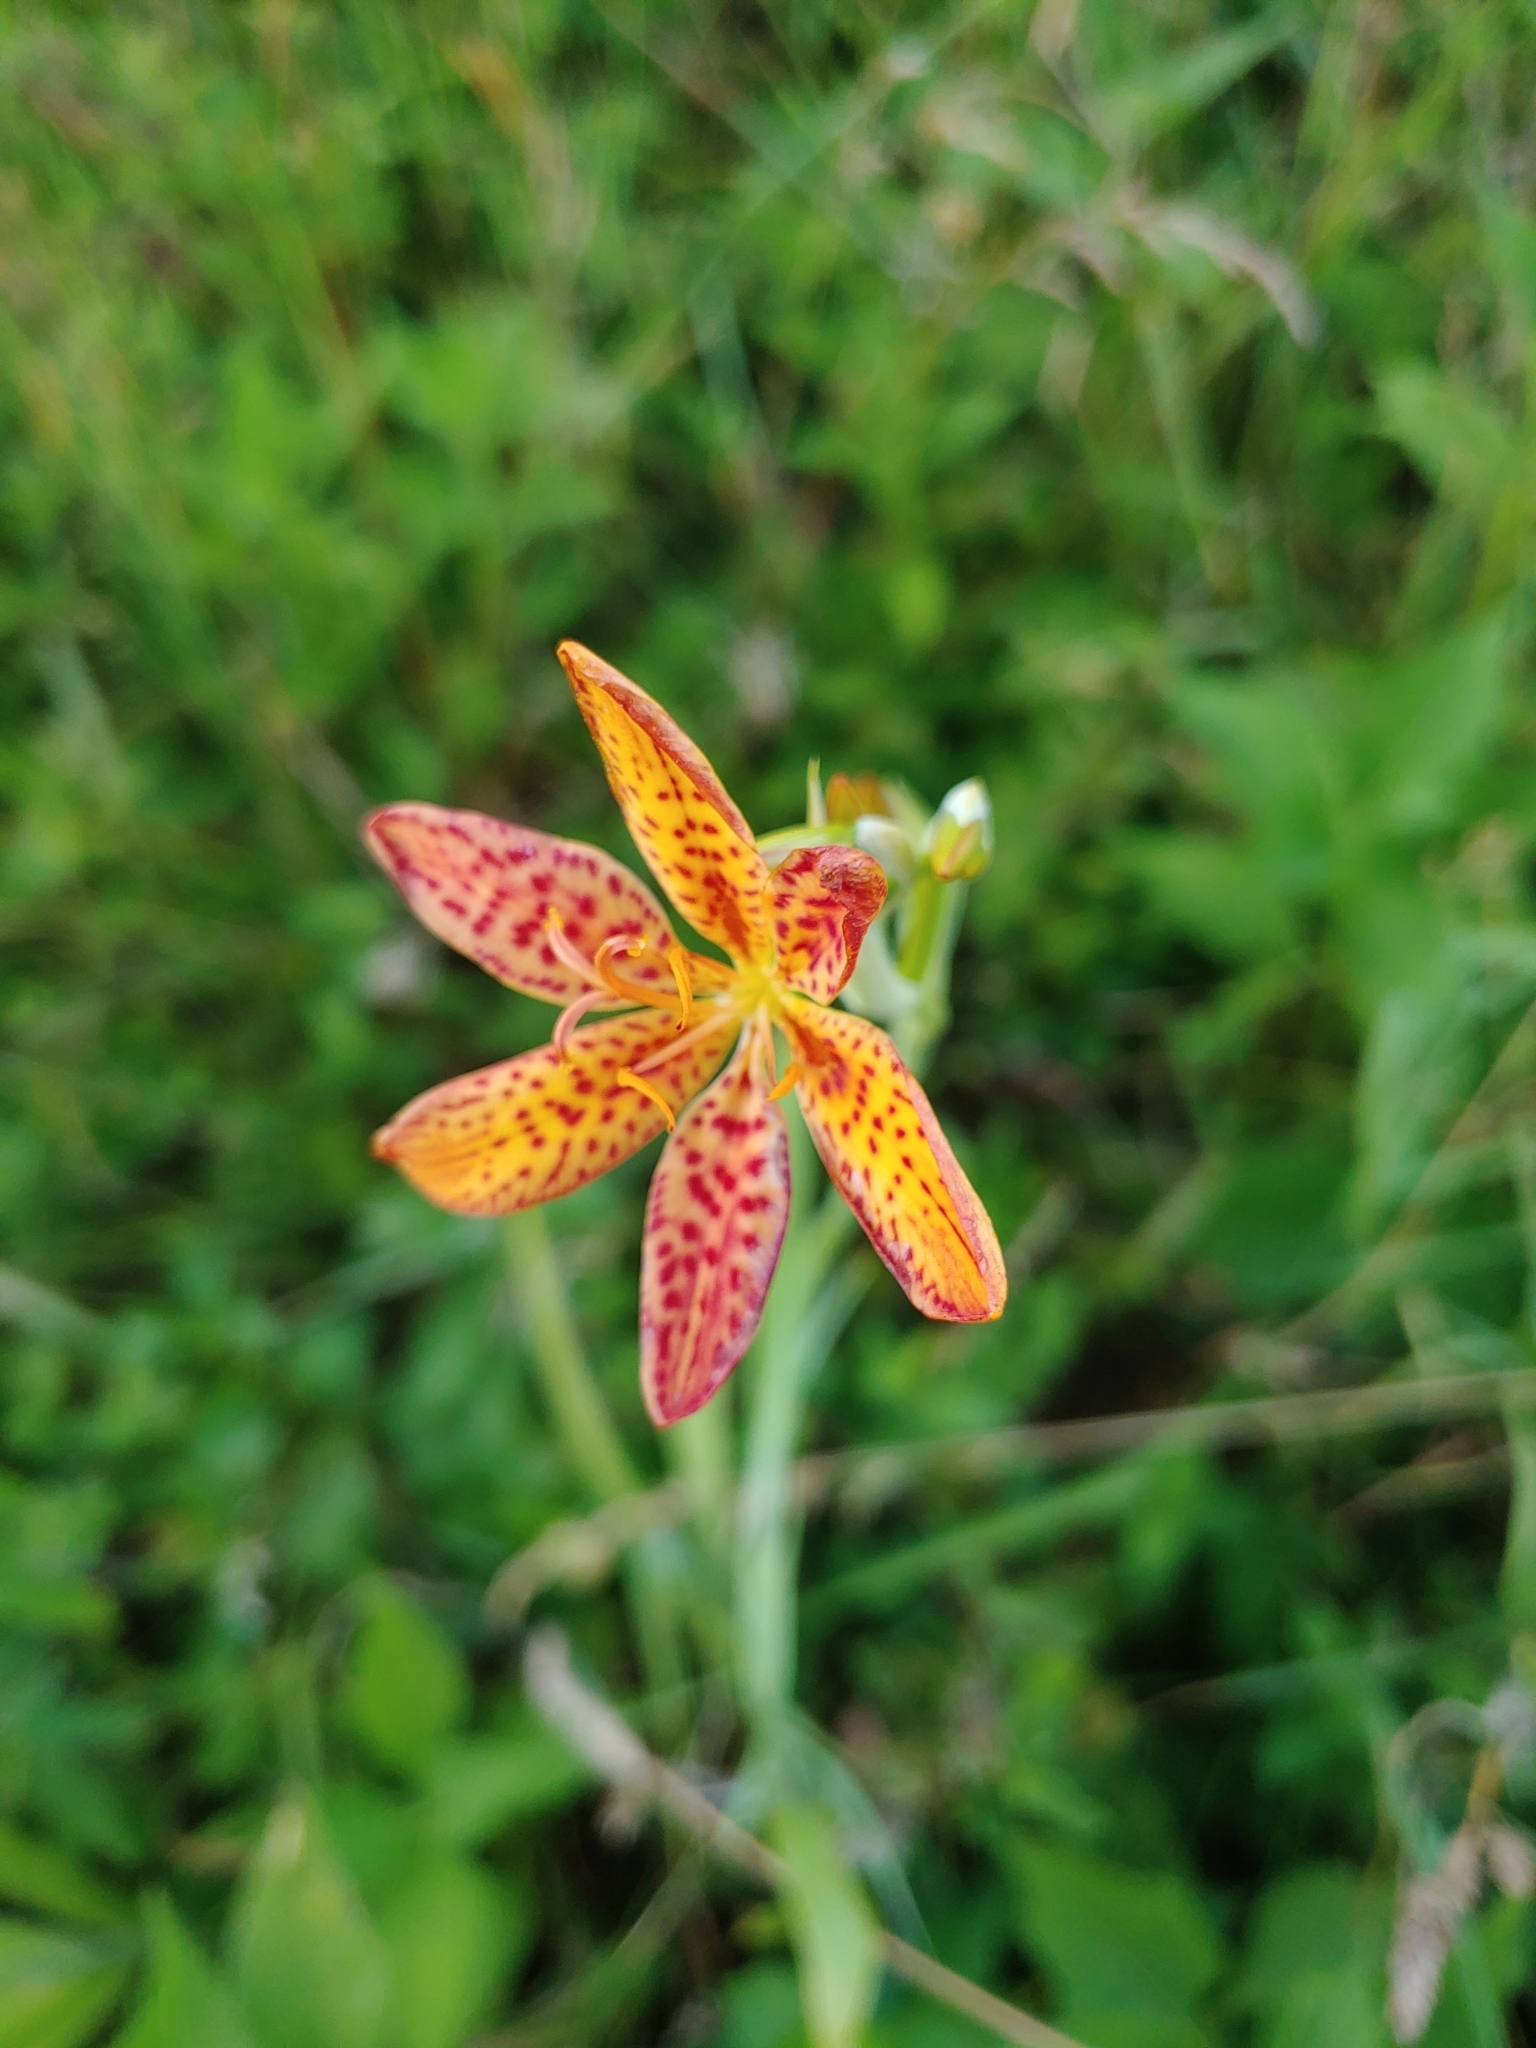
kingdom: Plantae
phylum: Tracheophyta
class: Liliopsida
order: Asparagales
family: Iridaceae
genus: Iris
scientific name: Iris domestica
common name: Belamcanda
